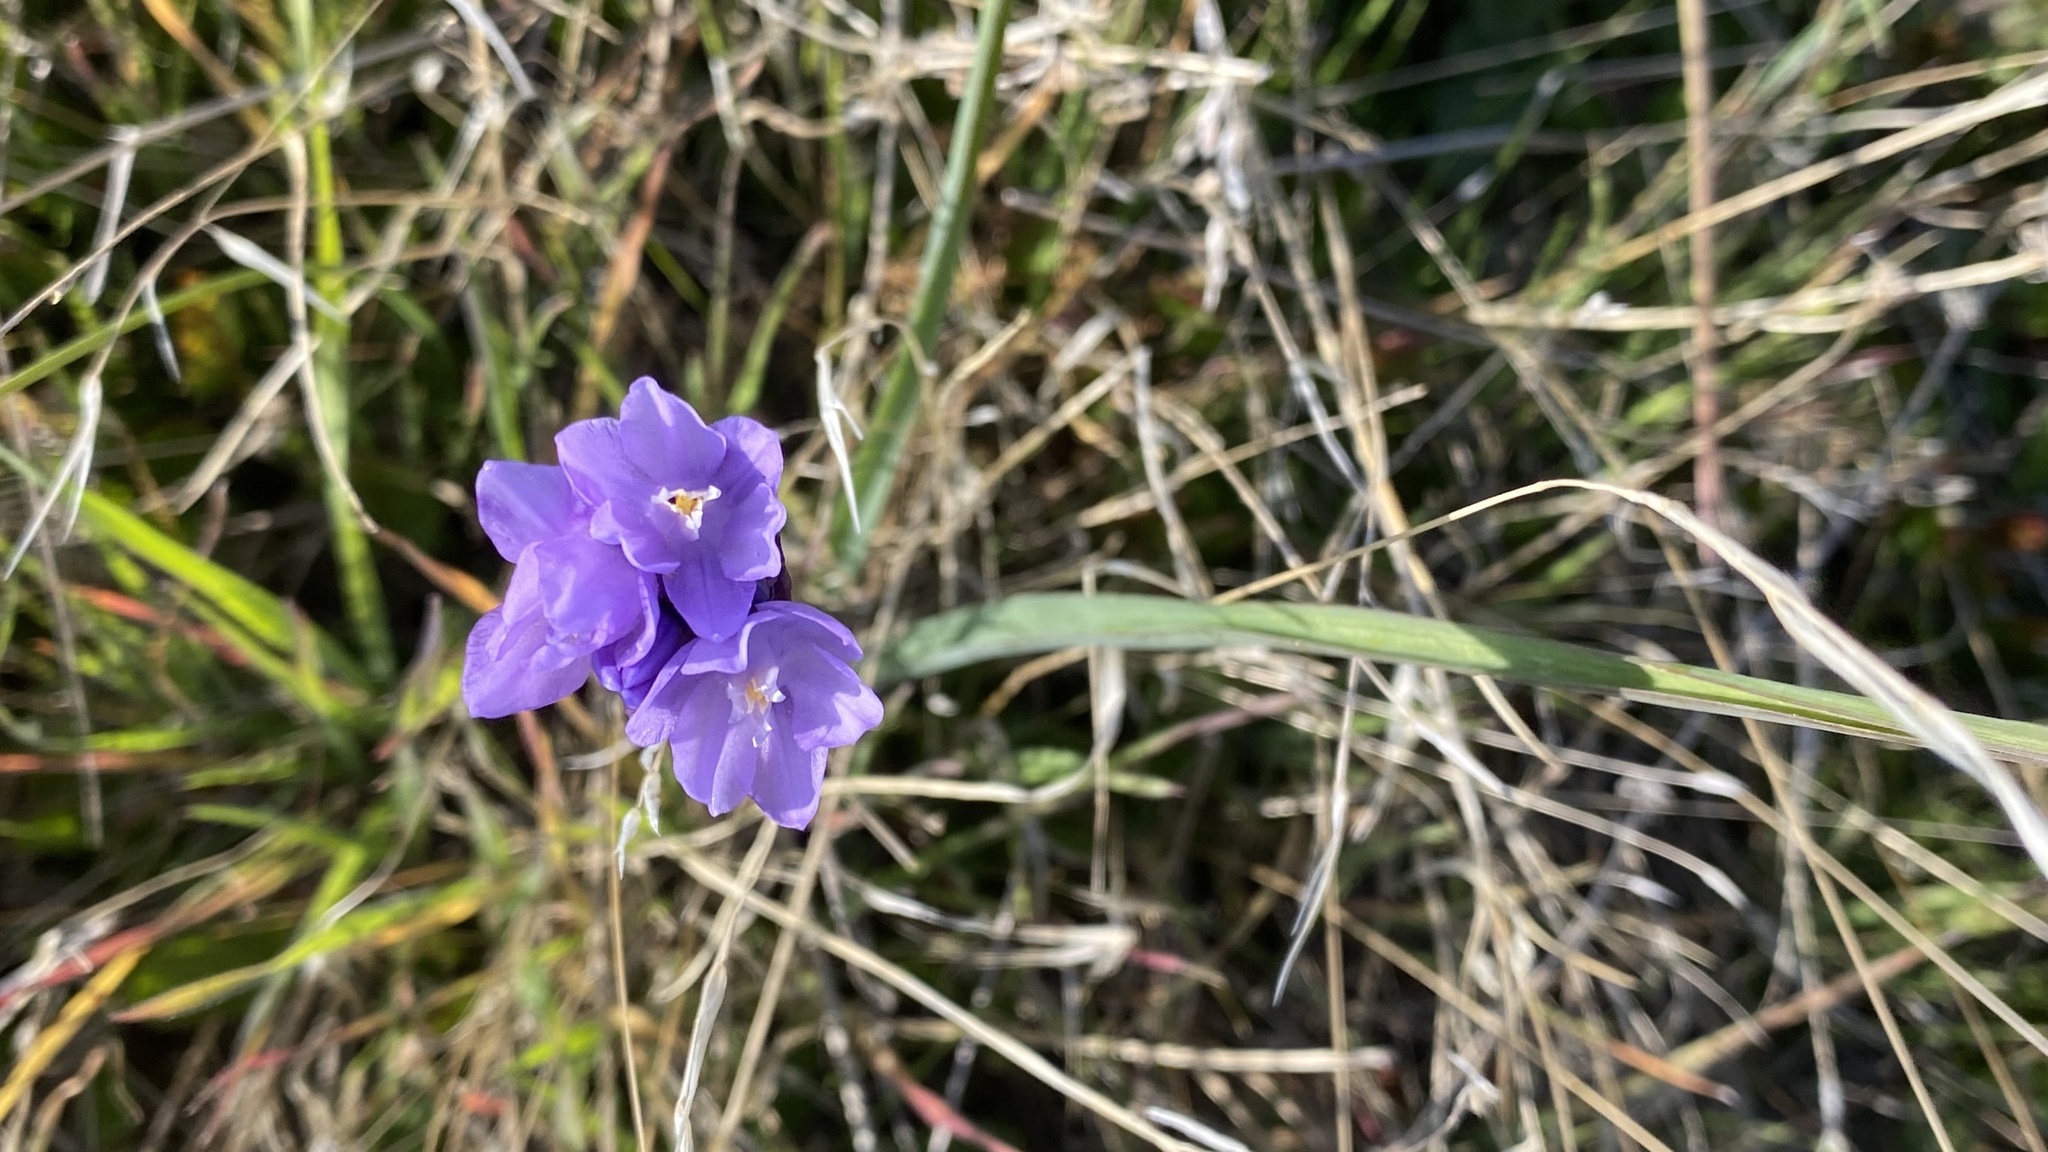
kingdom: Plantae
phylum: Tracheophyta
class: Liliopsida
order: Asparagales
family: Asparagaceae
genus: Dipterostemon
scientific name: Dipterostemon capitatus
